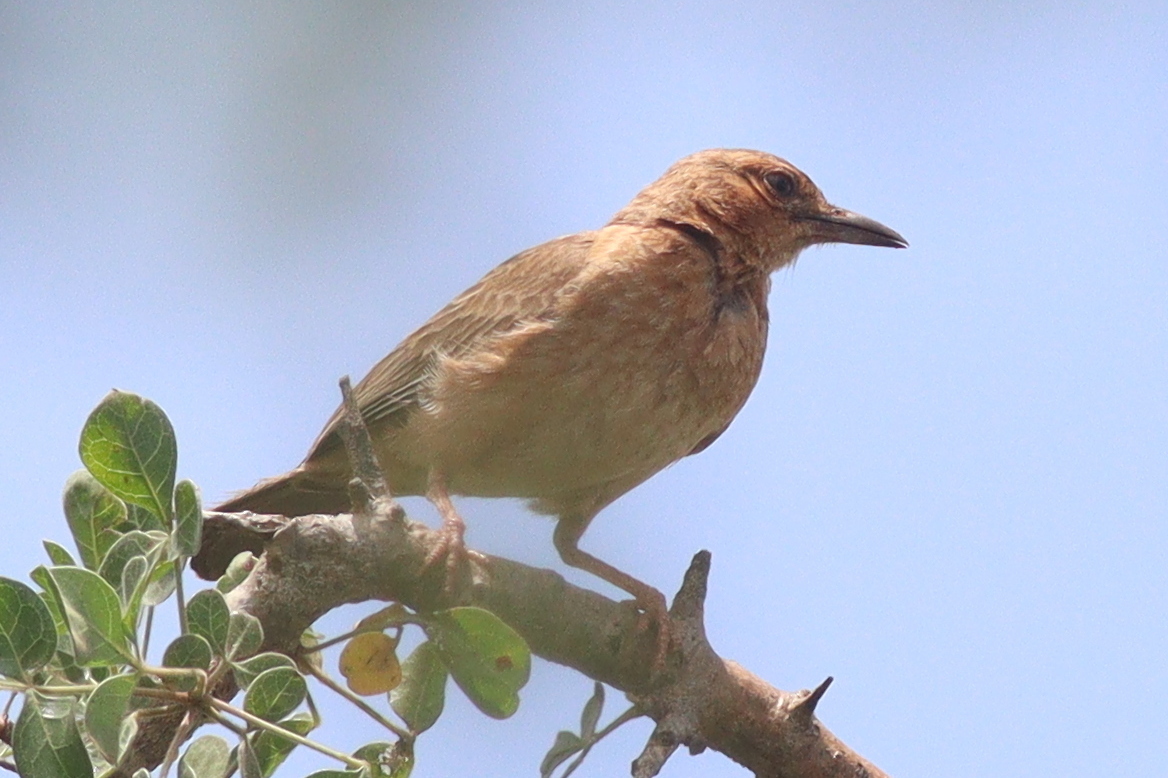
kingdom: Animalia
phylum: Chordata
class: Aves
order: Passeriformes
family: Alaudidae
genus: Calendulauda
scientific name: Calendulauda poecilosterna
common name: Pink-breasted lark
